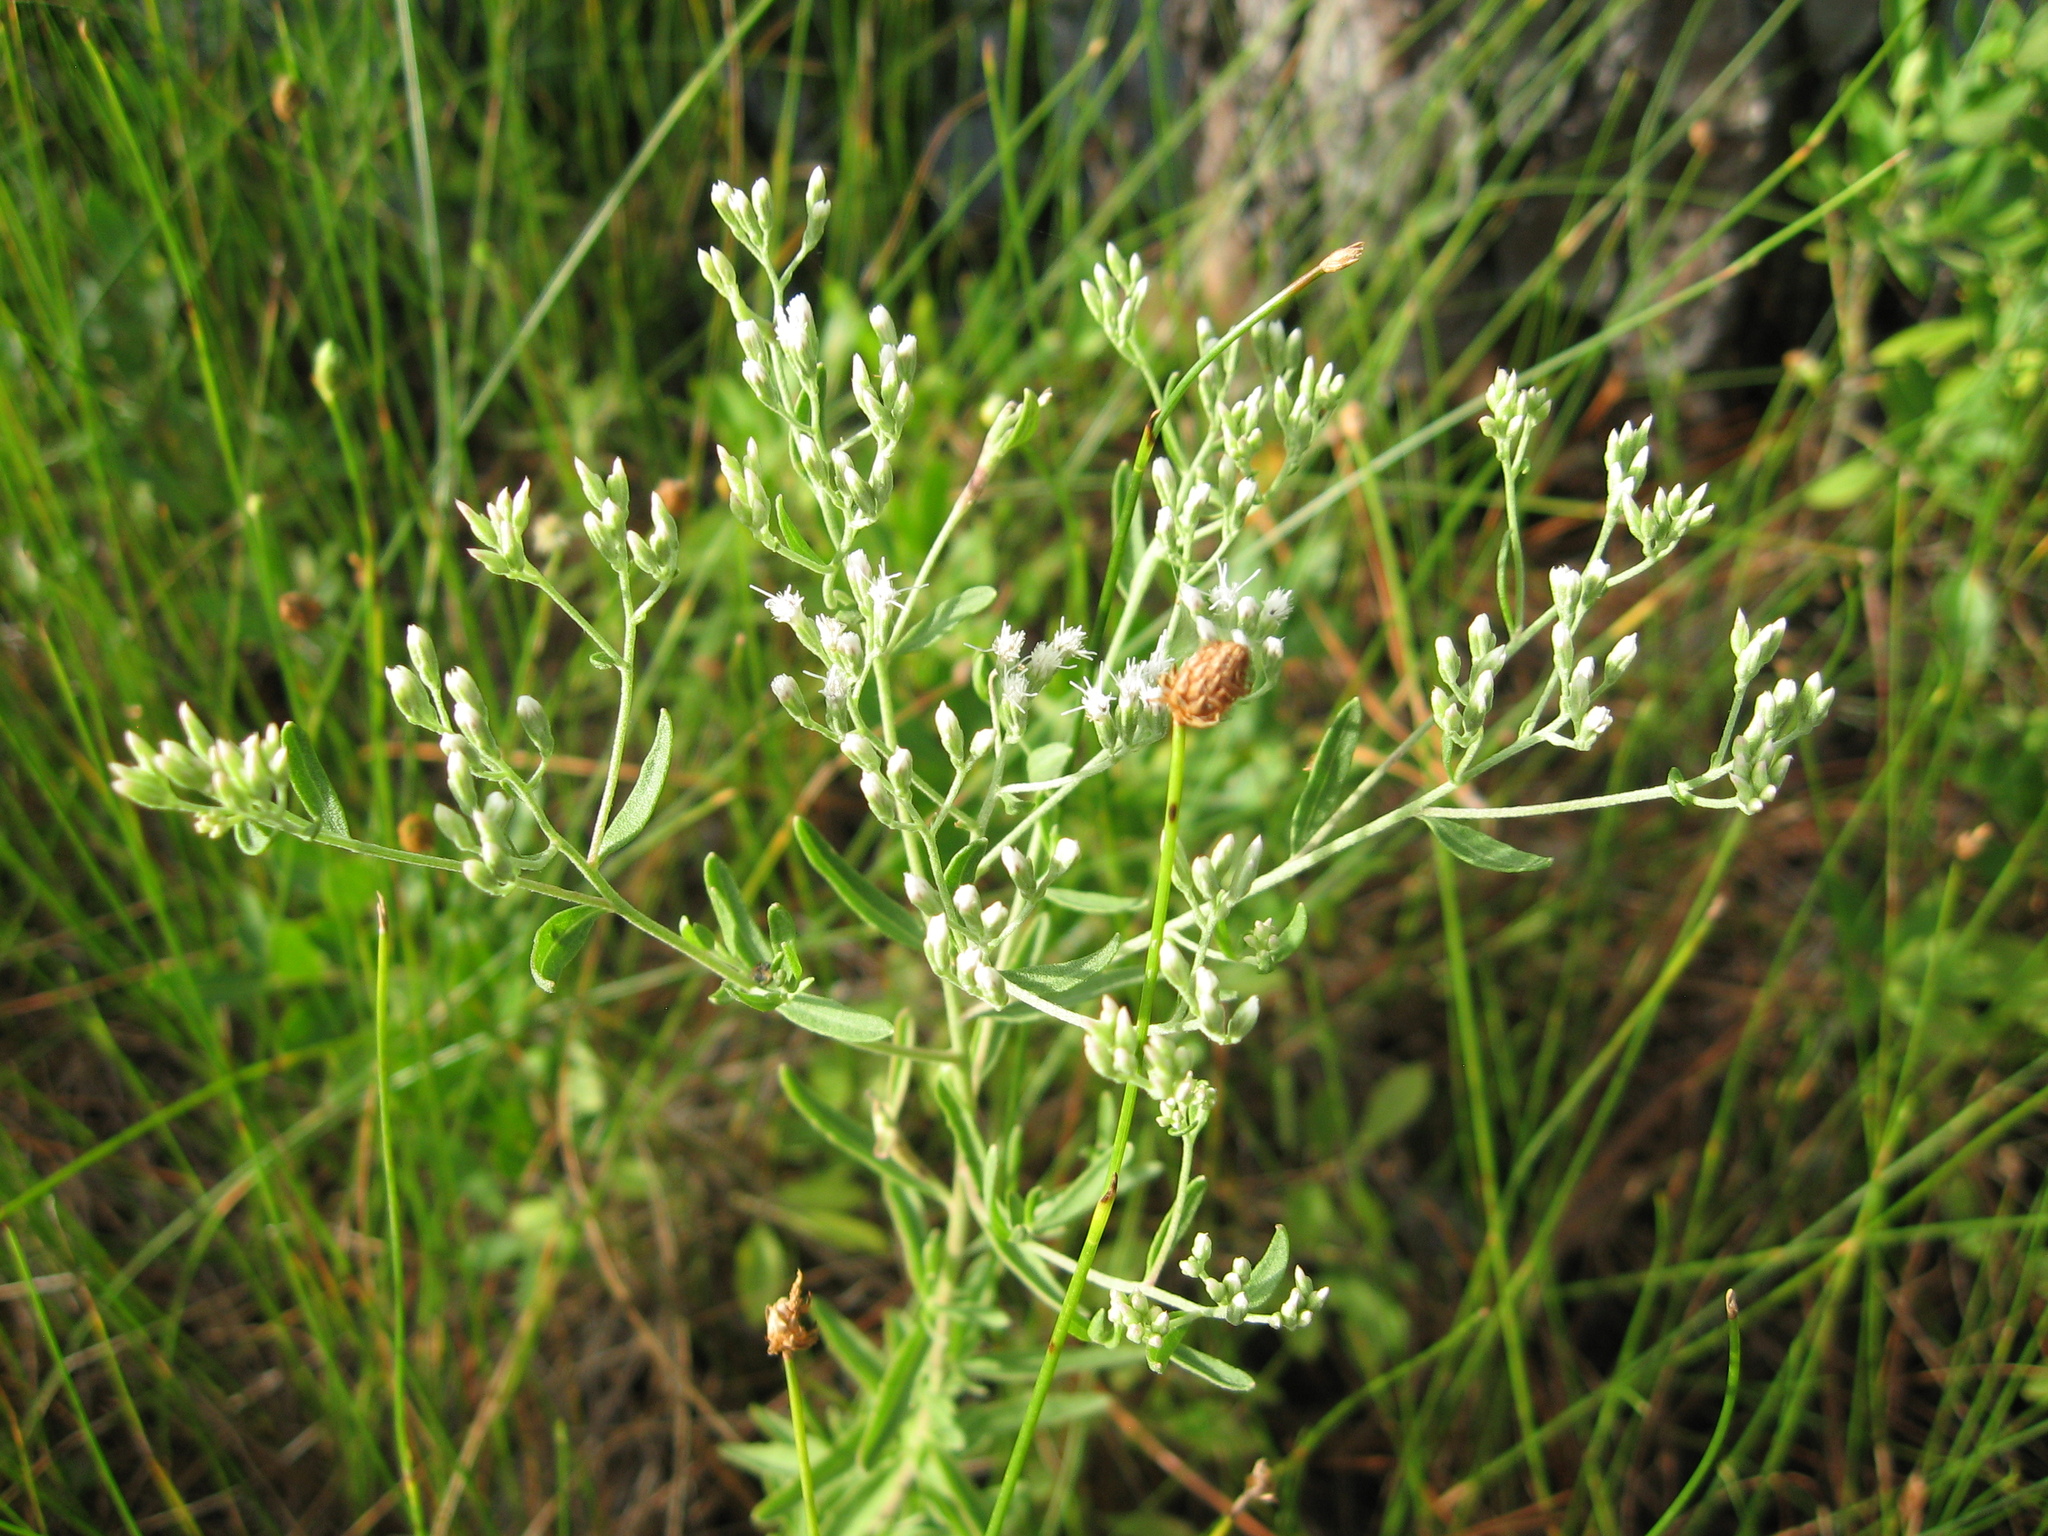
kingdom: Plantae
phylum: Tracheophyta
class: Magnoliopsida
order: Asterales
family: Asteraceae
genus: Eupatorium
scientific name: Eupatorium mohrii
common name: Mohr's thoroughwort
